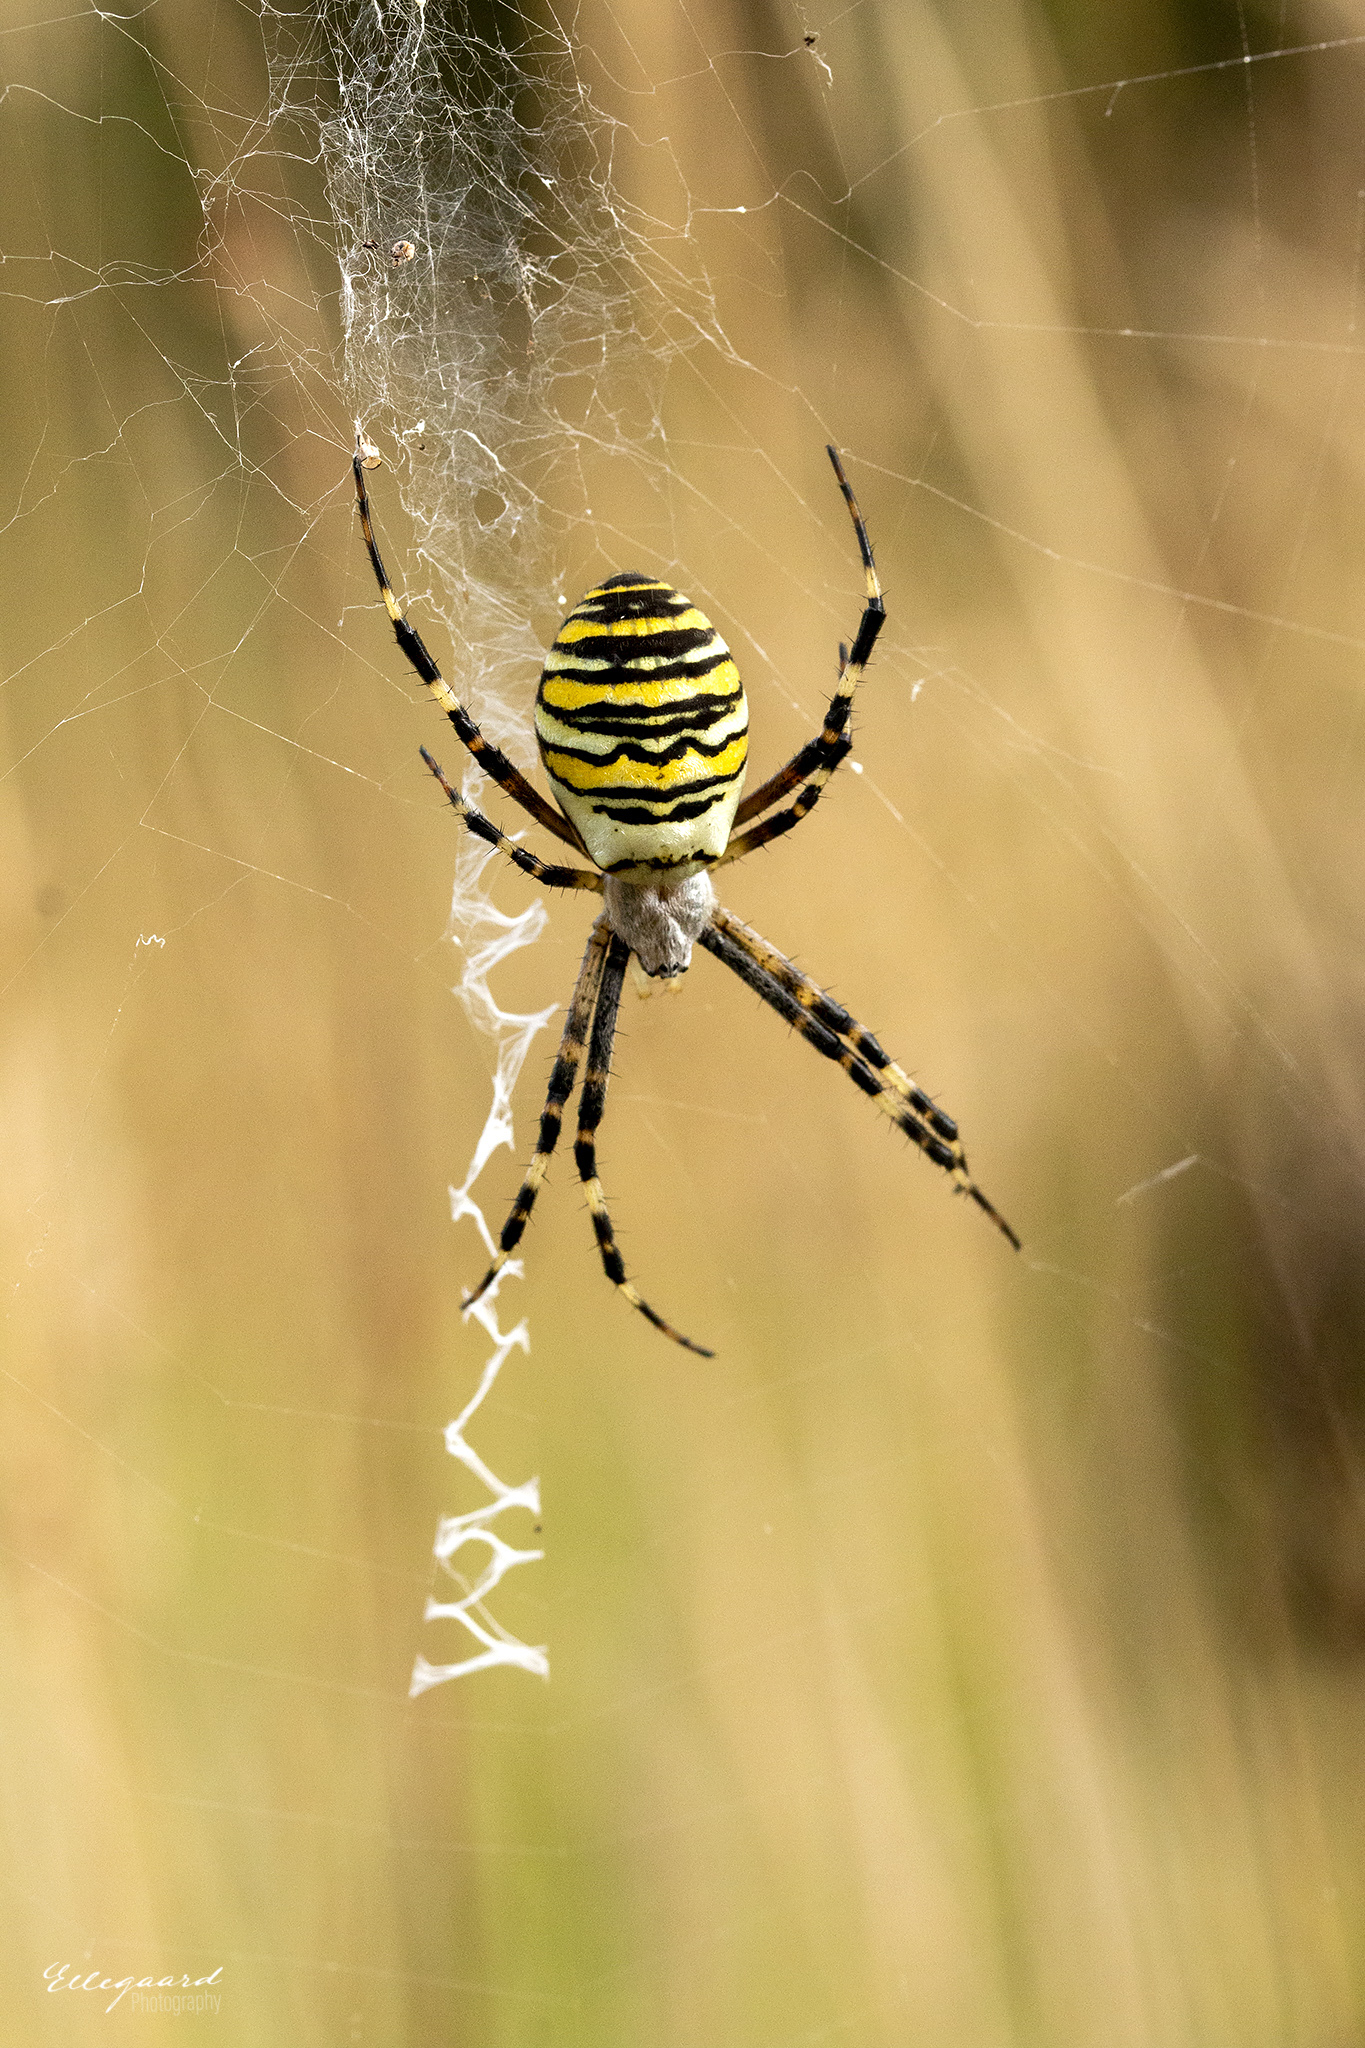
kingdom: Animalia
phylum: Arthropoda
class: Arachnida
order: Araneae
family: Araneidae
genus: Argiope
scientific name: Argiope bruennichi
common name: Wasp spider
